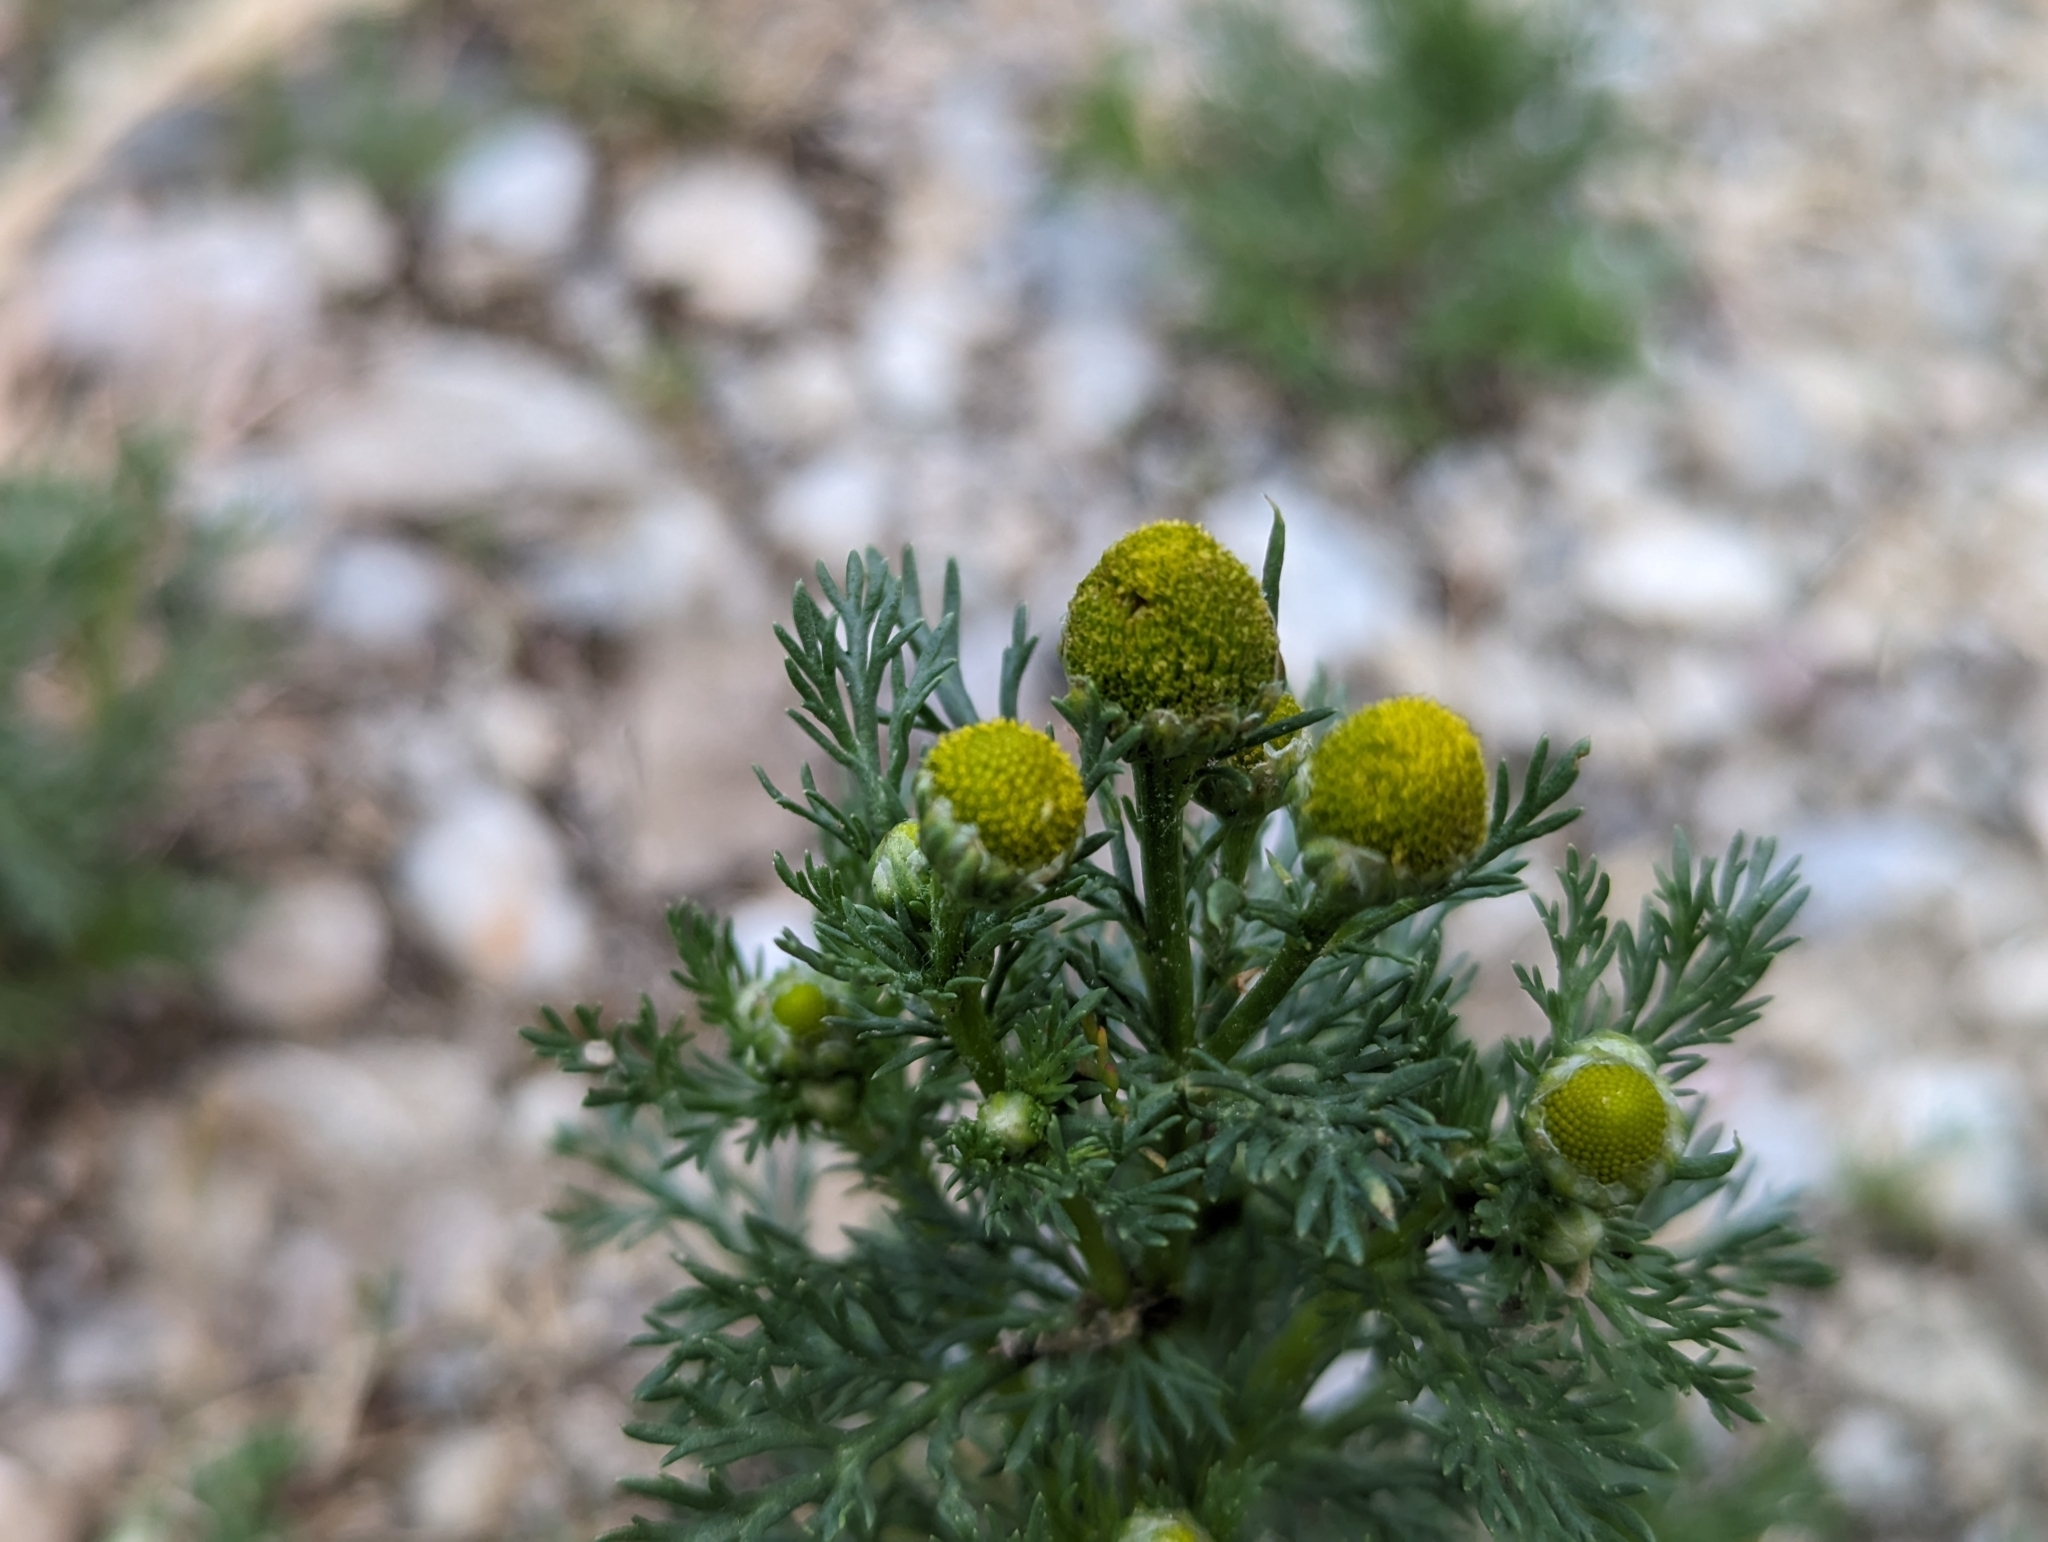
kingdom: Plantae
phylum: Tracheophyta
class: Magnoliopsida
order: Asterales
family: Asteraceae
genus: Matricaria
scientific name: Matricaria discoidea
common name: Disc mayweed
